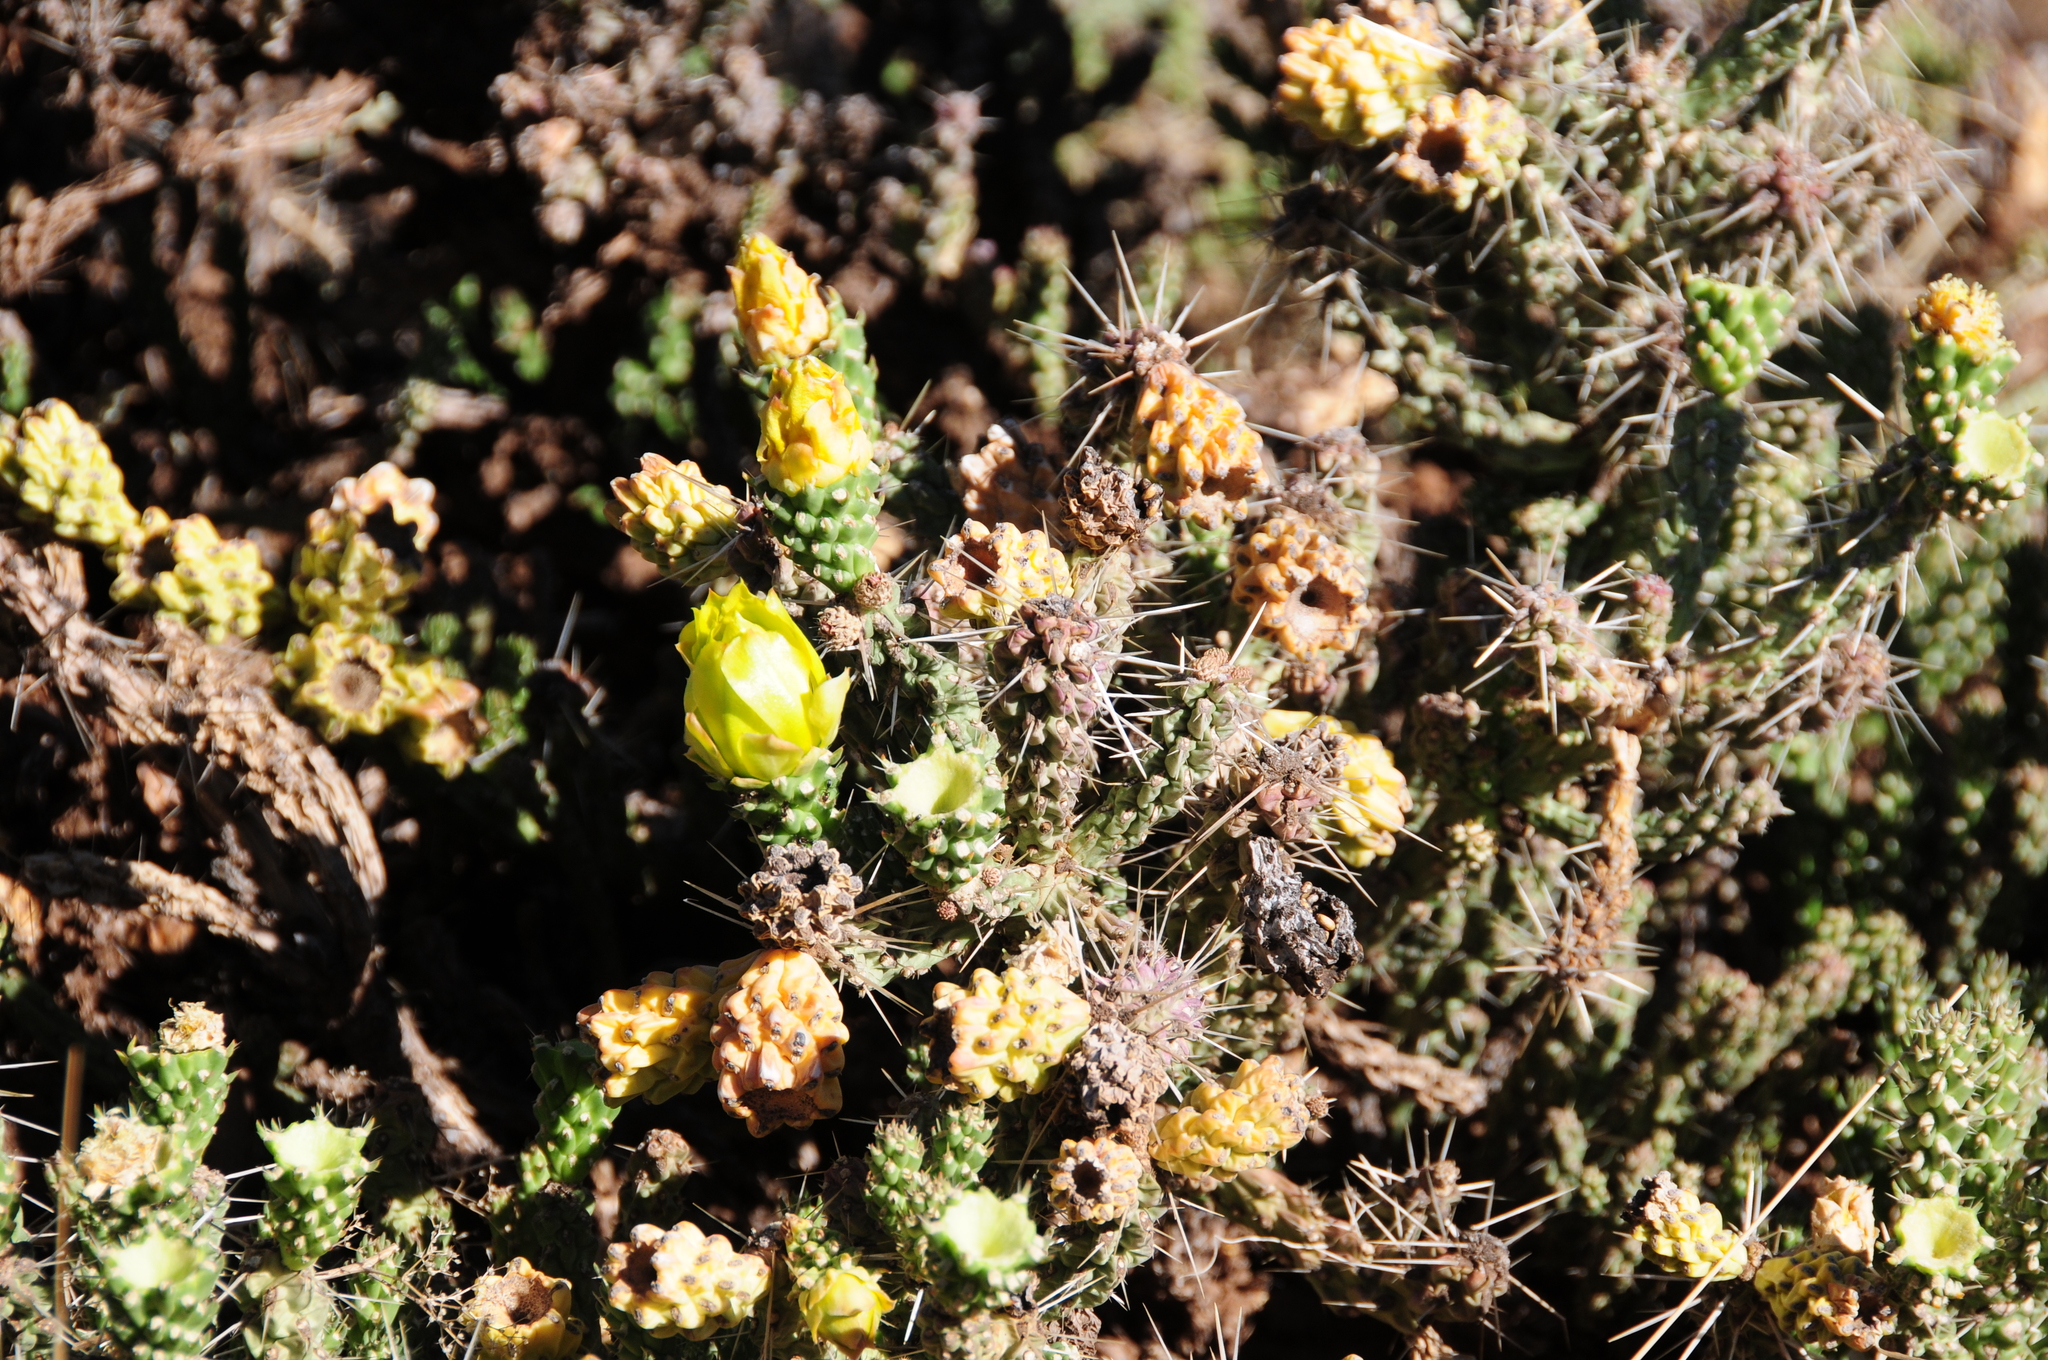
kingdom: Plantae
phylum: Tracheophyta
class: Magnoliopsida
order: Caryophyllales
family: Cactaceae
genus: Cylindropuntia
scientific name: Cylindropuntia whipplei
